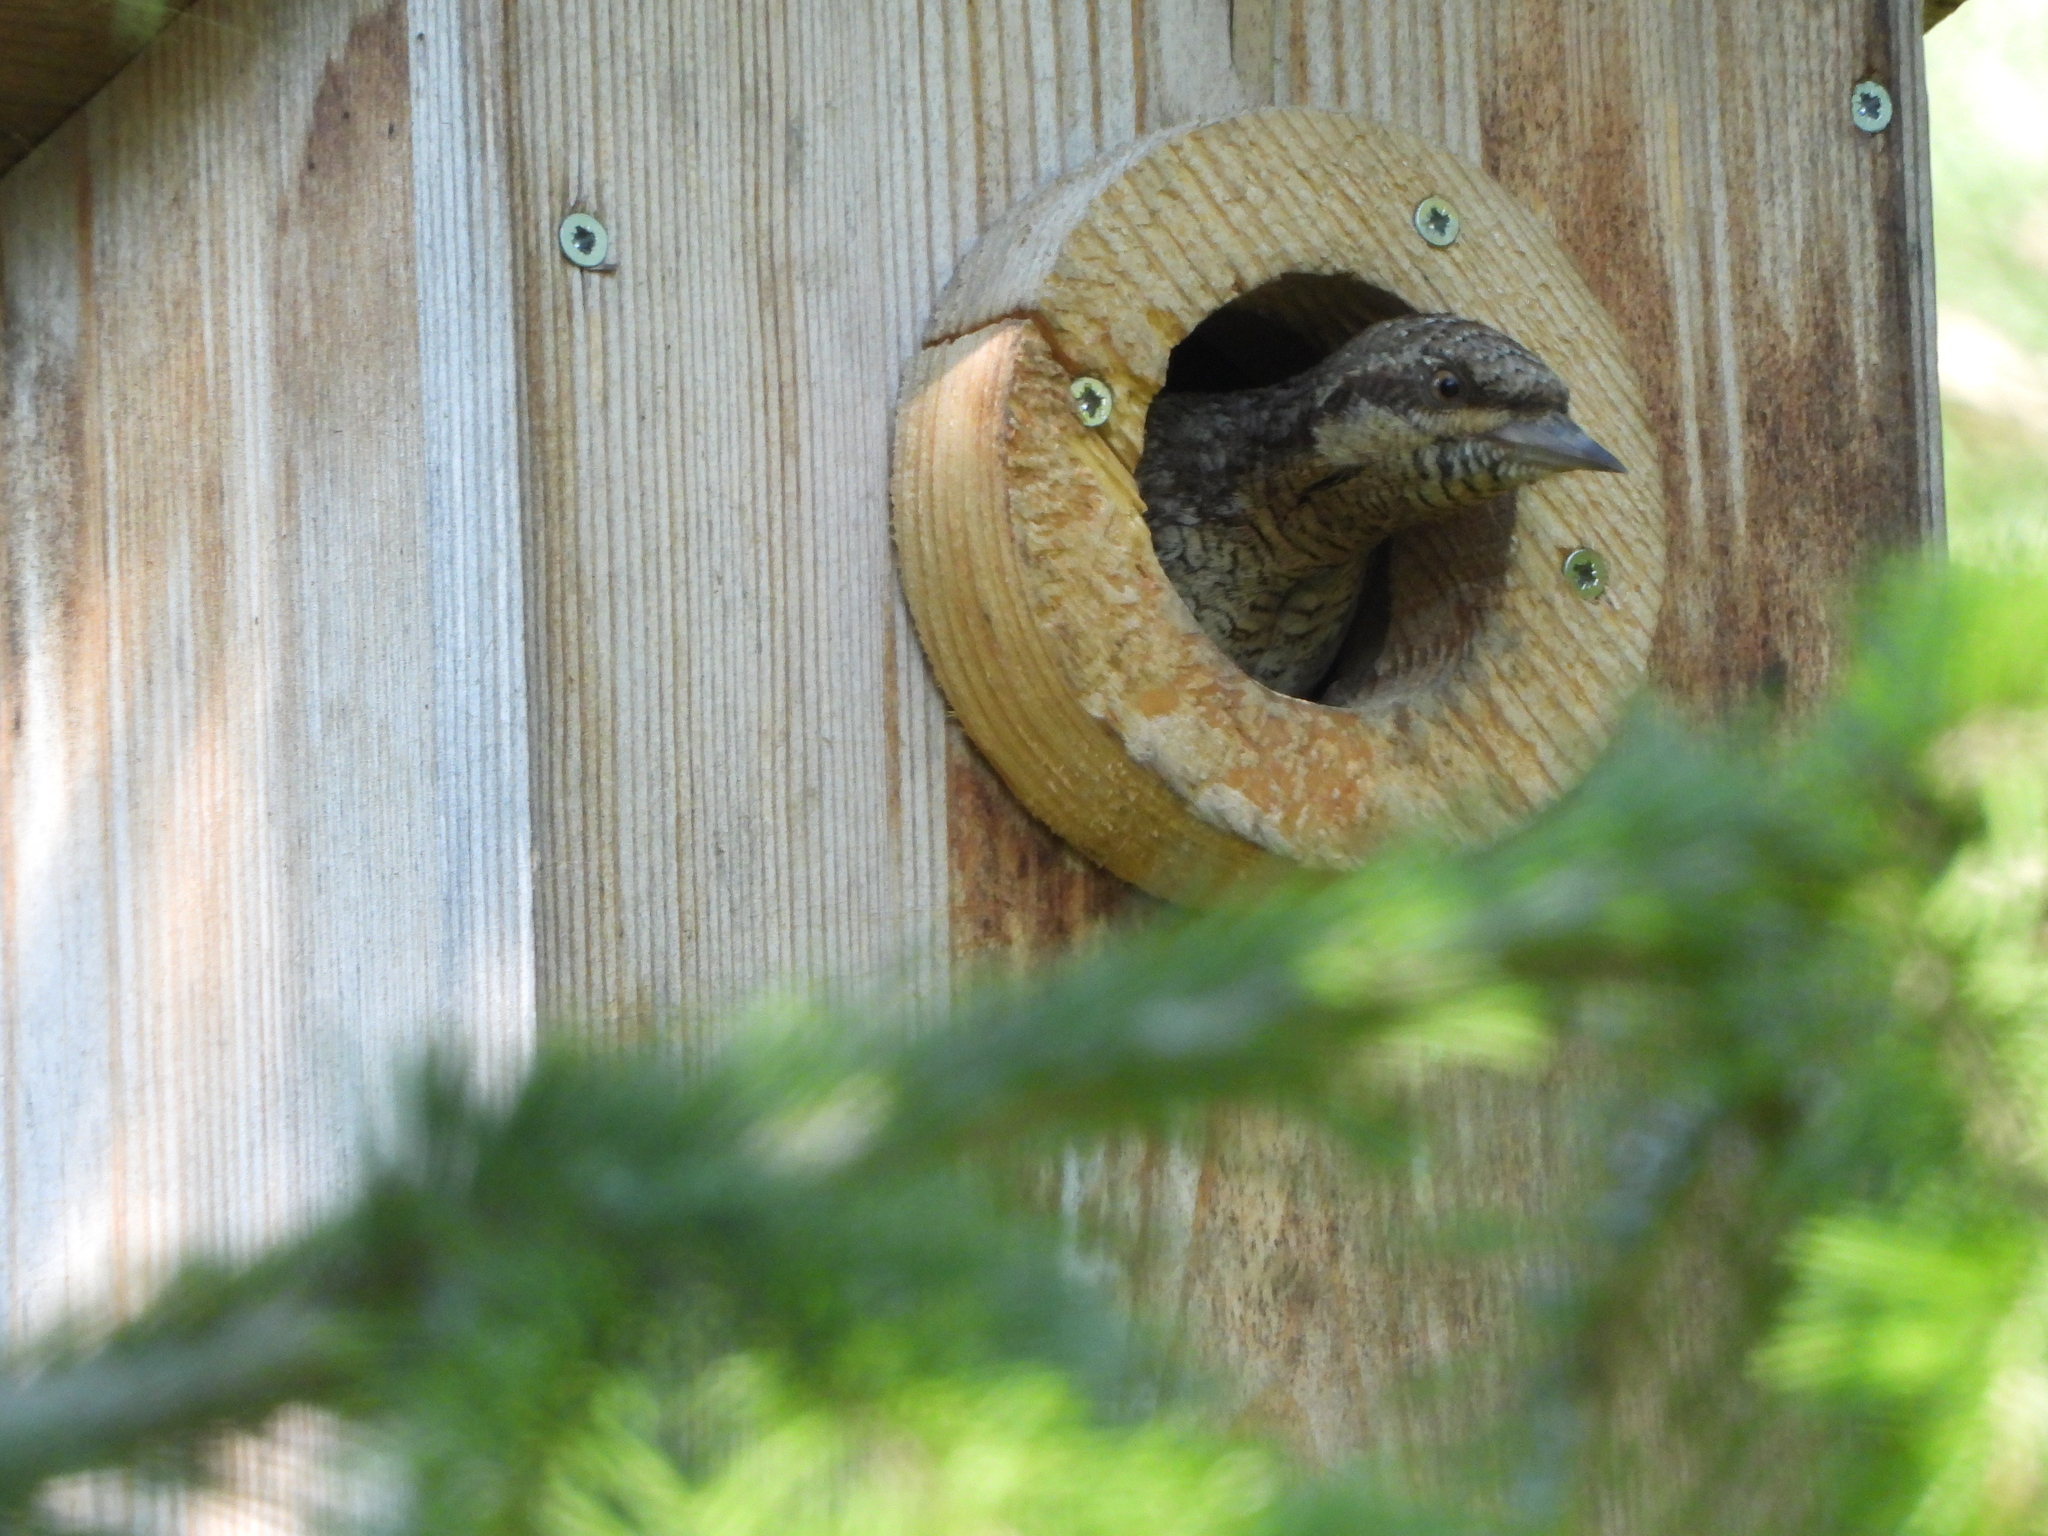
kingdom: Animalia
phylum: Chordata
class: Aves
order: Piciformes
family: Picidae
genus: Jynx
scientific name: Jynx torquilla
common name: Eurasian wryneck
